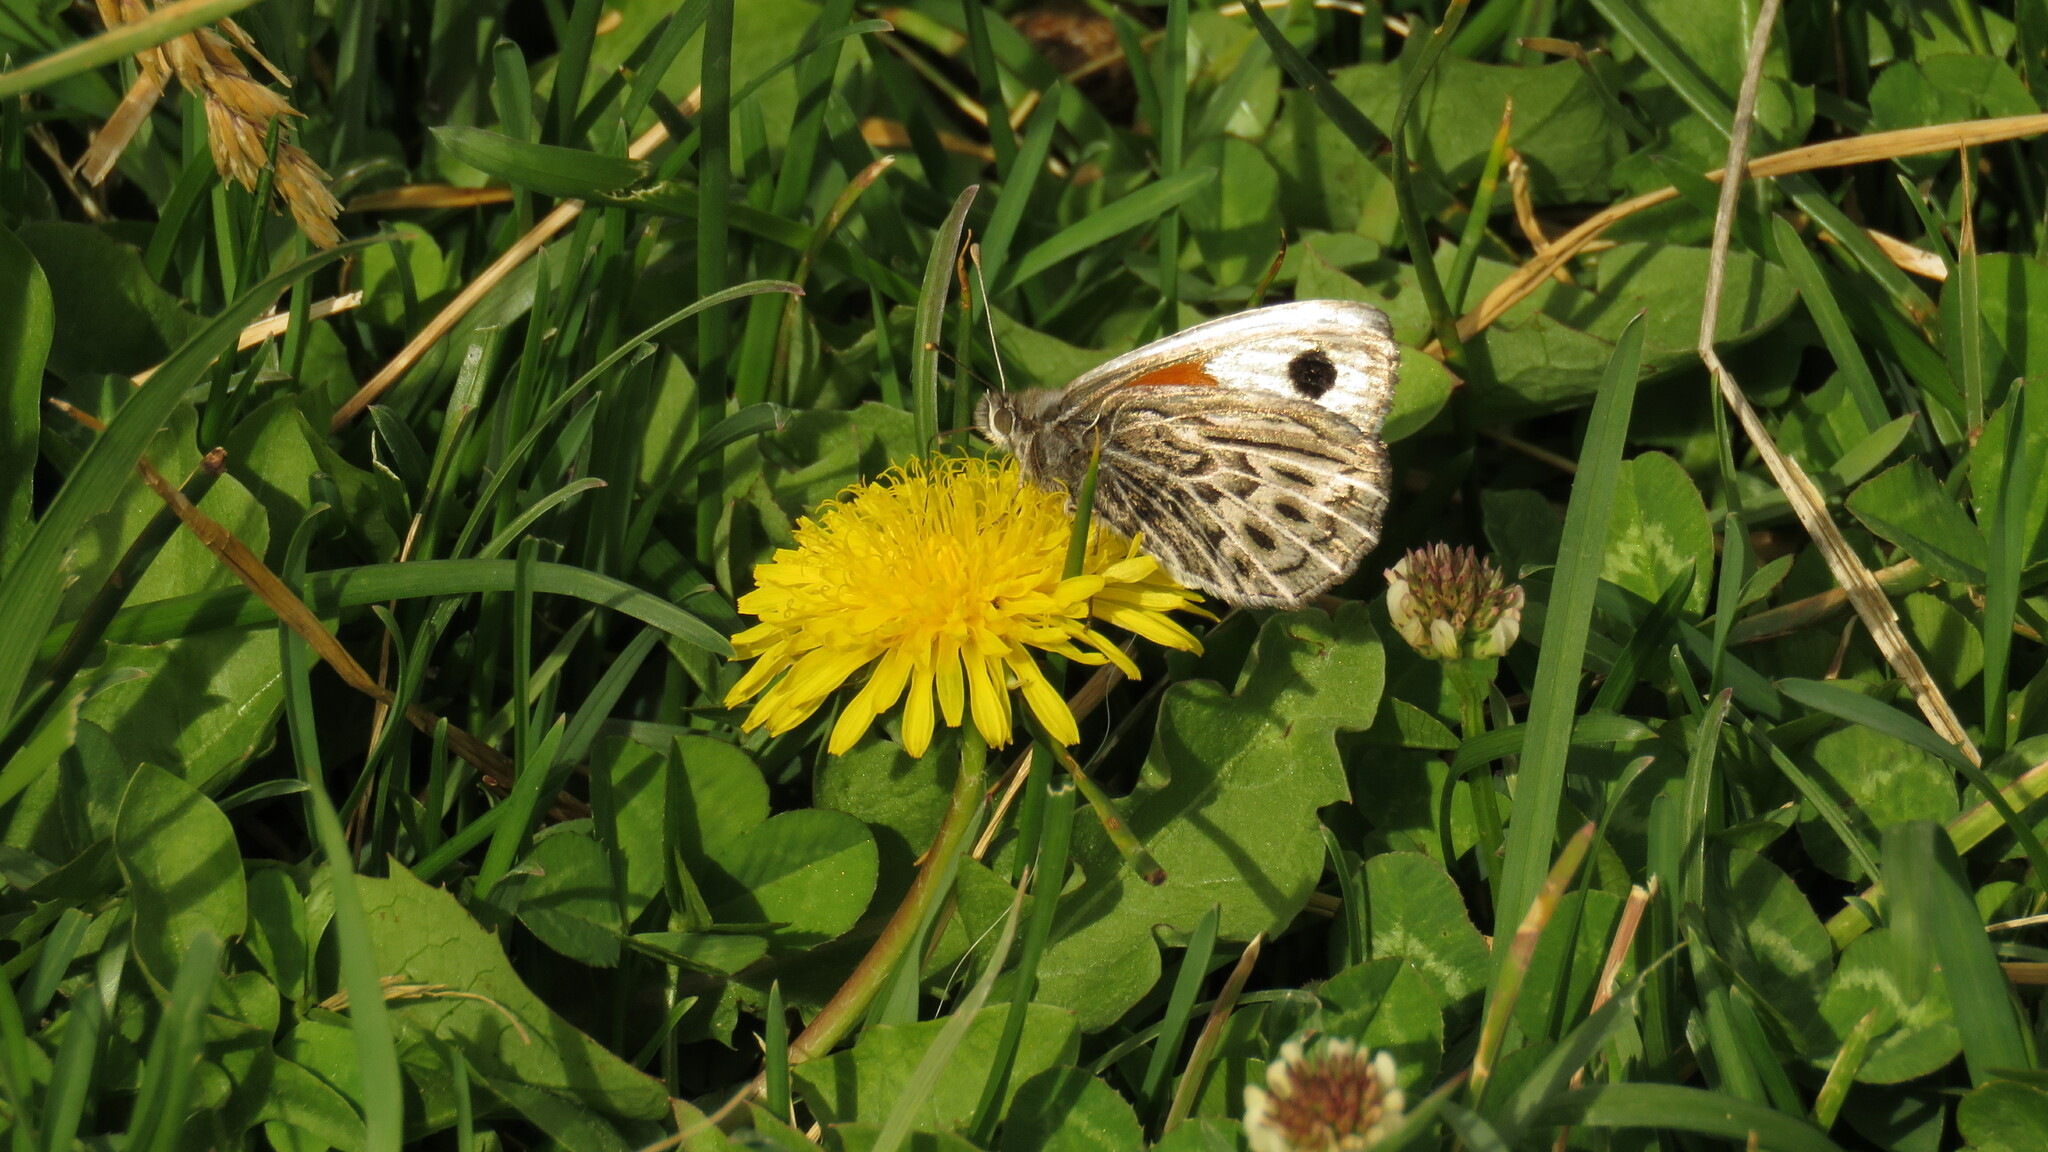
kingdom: Animalia
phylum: Arthropoda
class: Insecta
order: Lepidoptera
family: Nymphalidae
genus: Argyrophorus
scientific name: Argyrophorus argenteus
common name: Silver satyr
